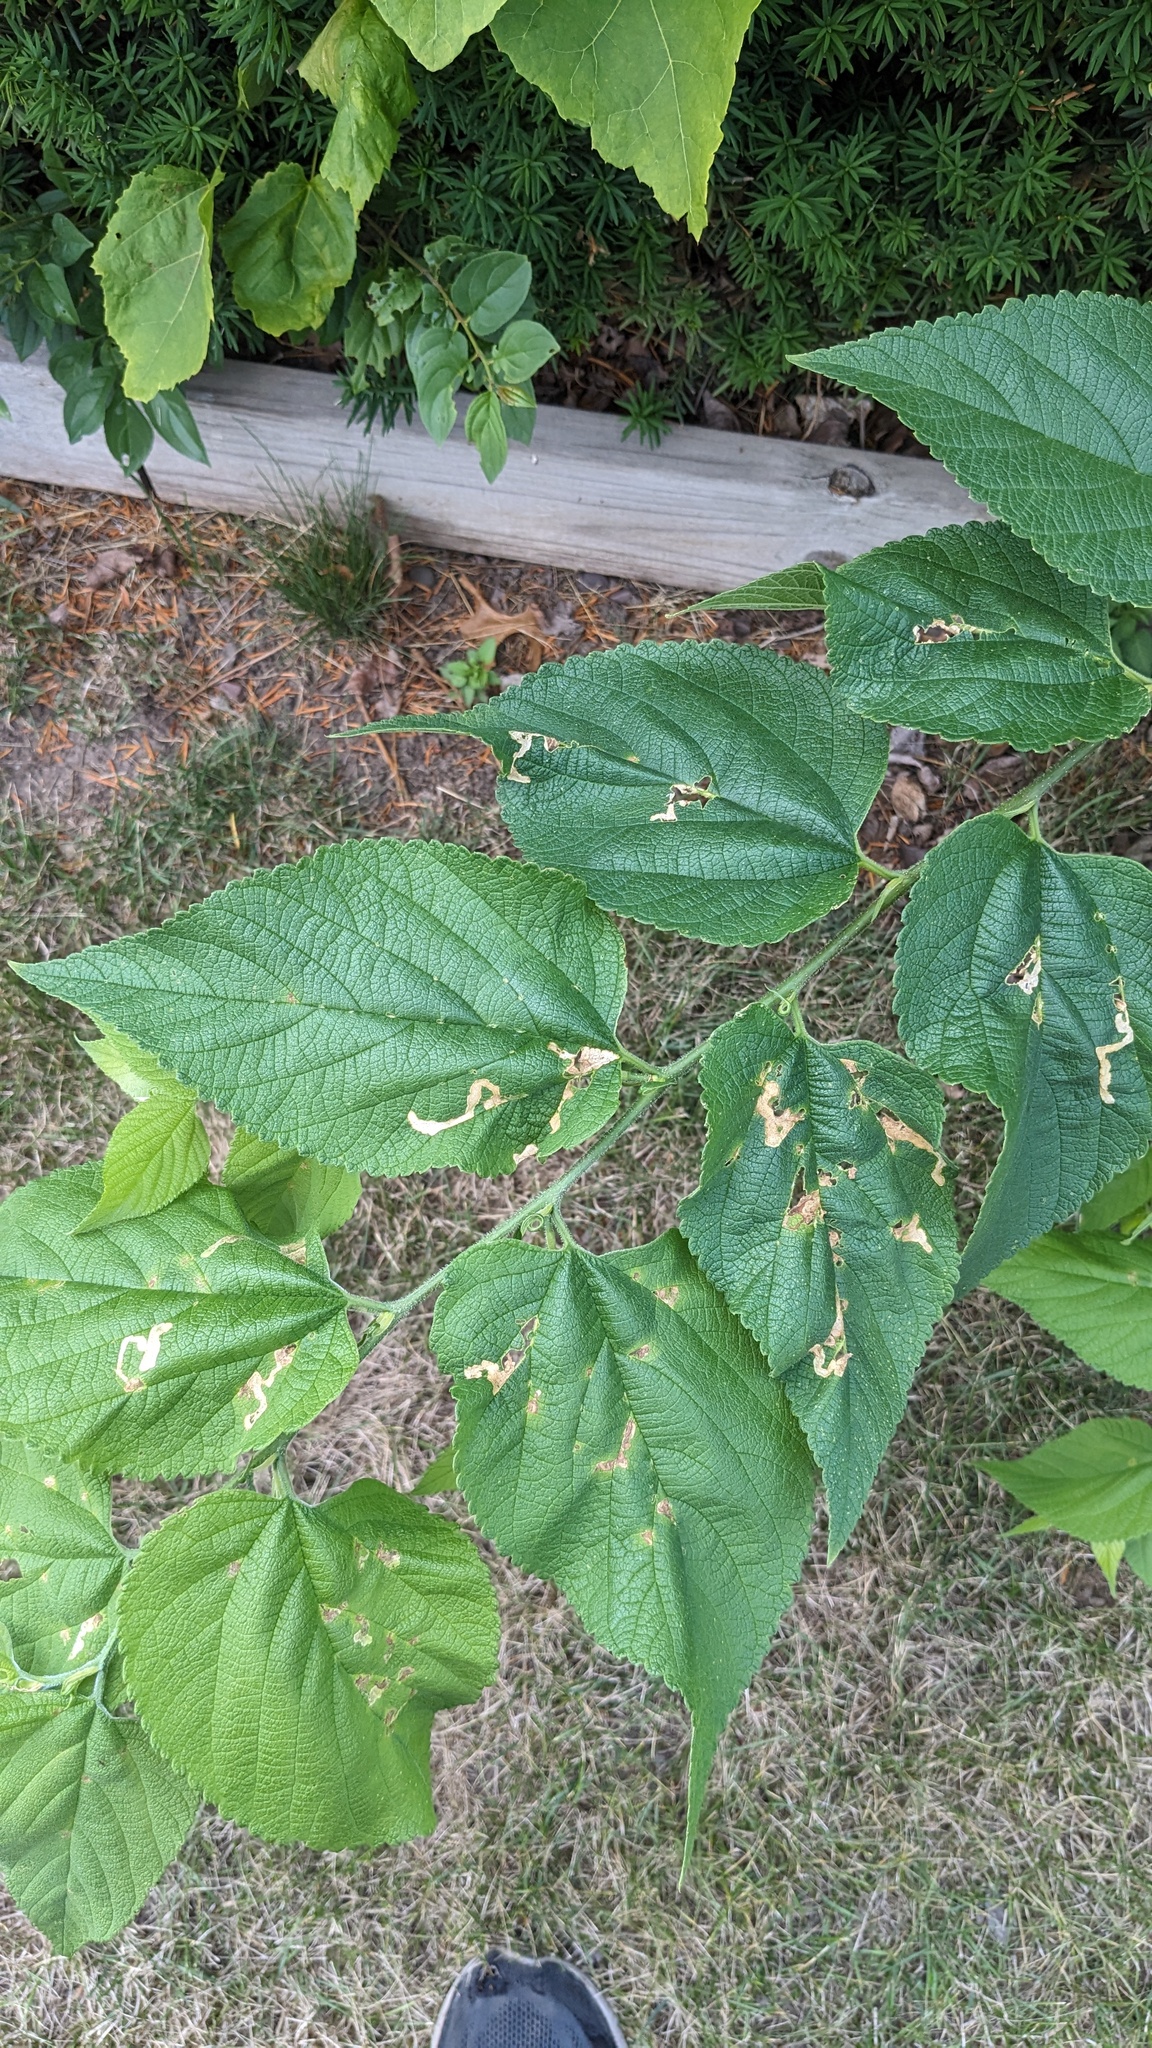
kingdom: Plantae
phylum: Tracheophyta
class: Magnoliopsida
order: Rosales
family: Cannabaceae
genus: Celtis
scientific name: Celtis occidentalis
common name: Common hackberry
